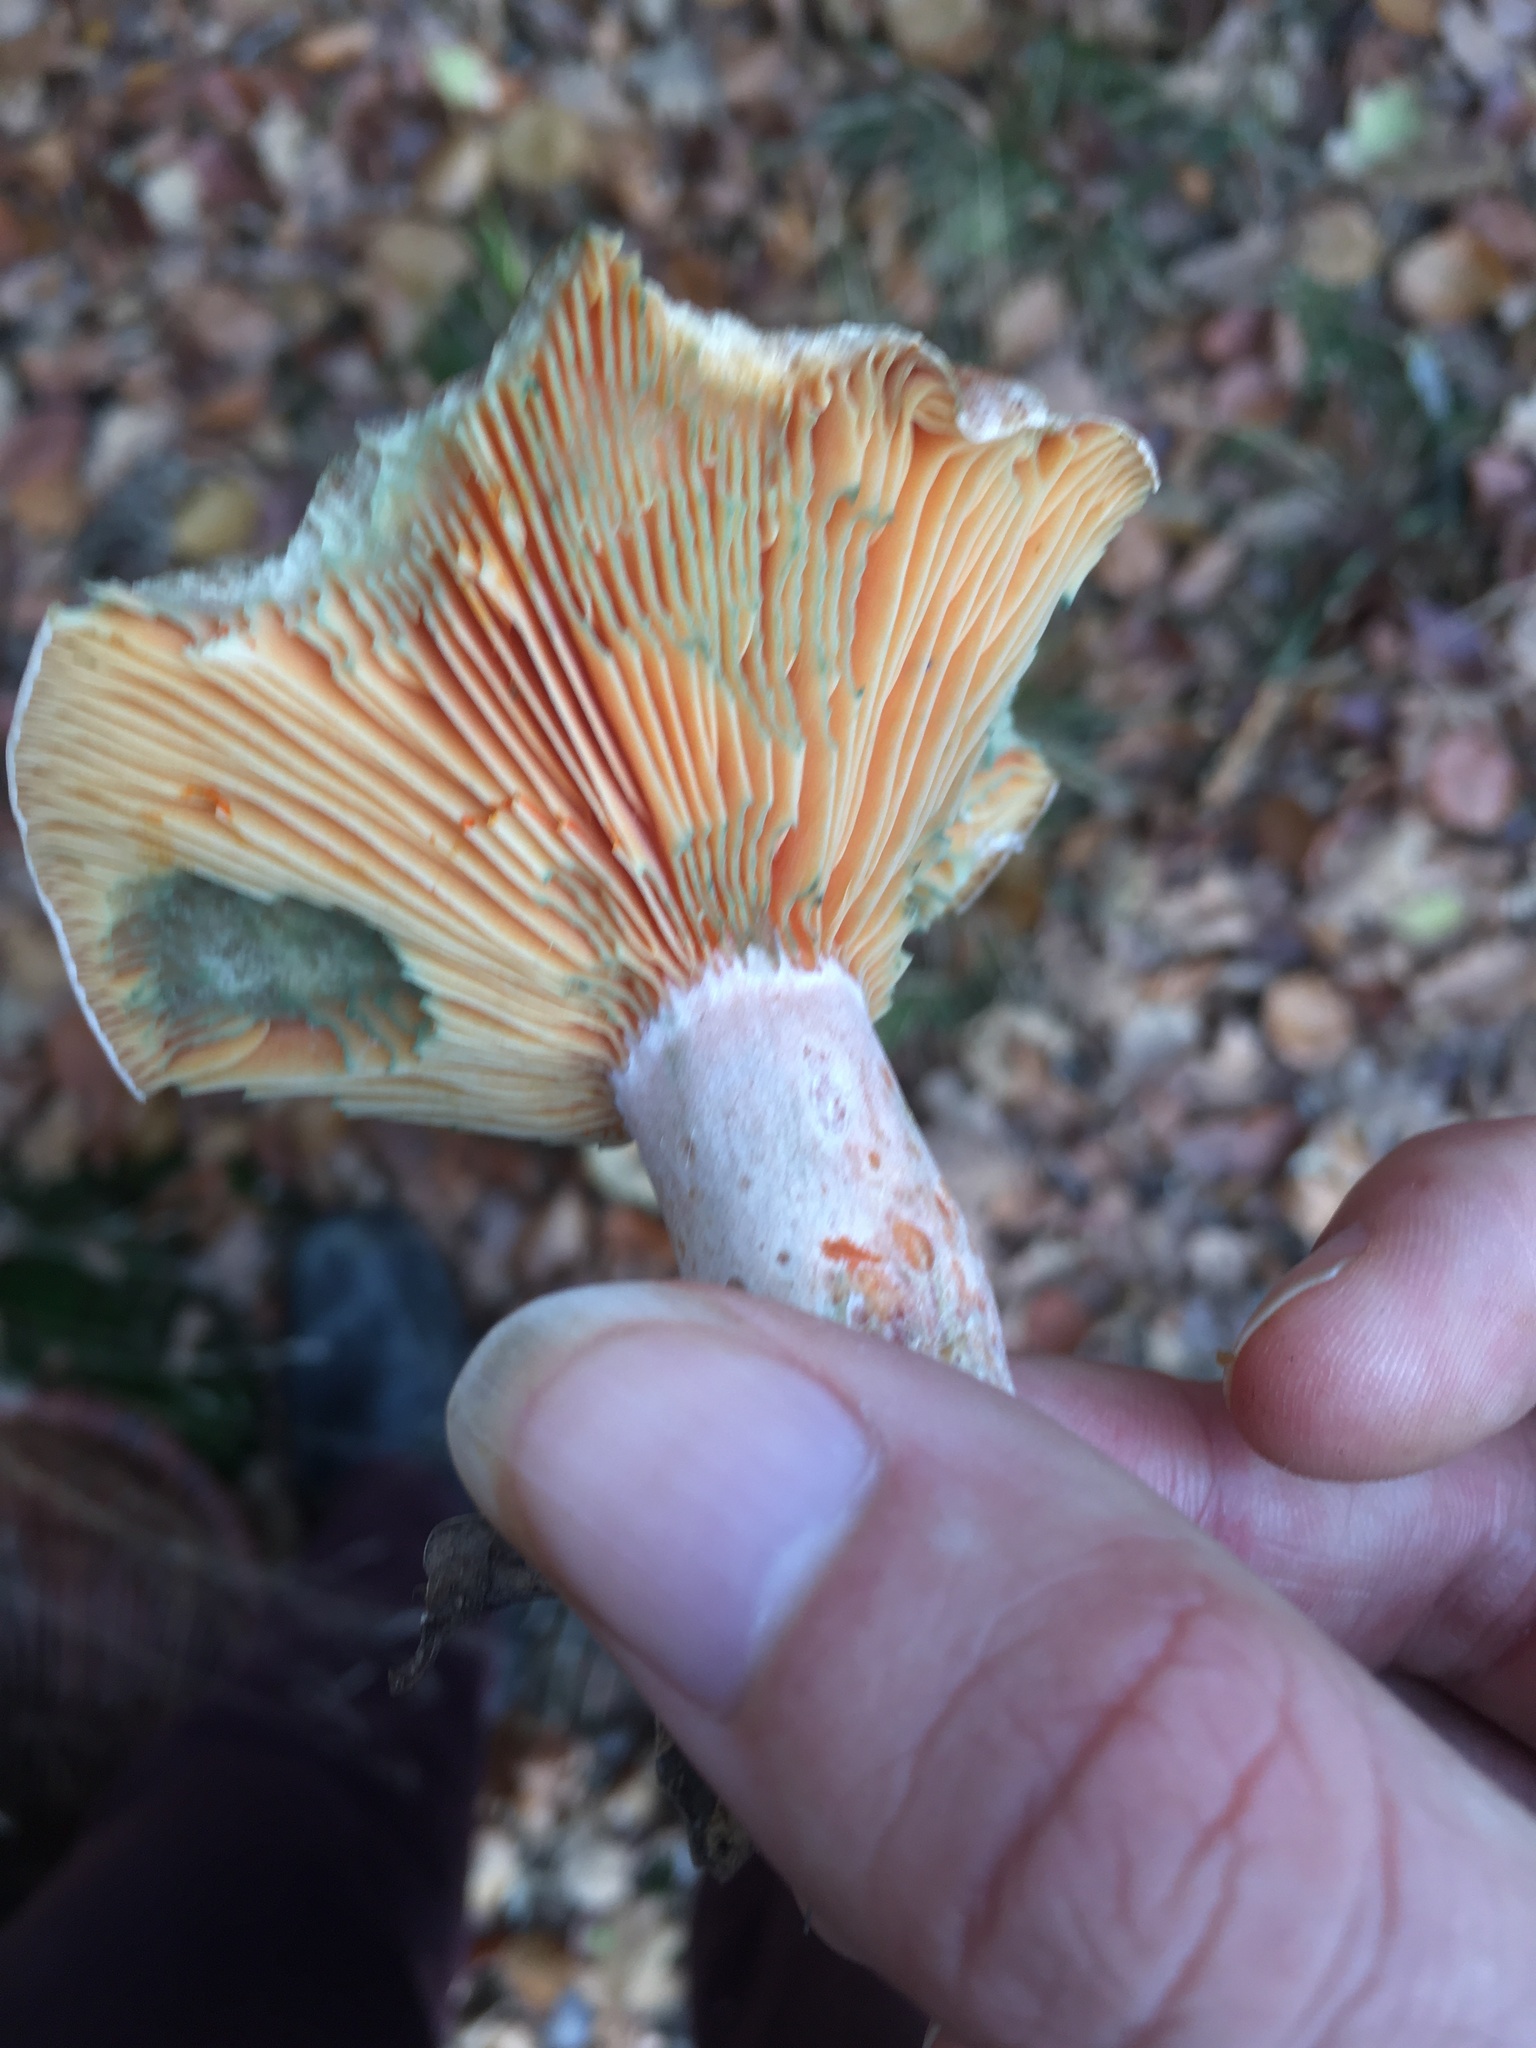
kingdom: Fungi
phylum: Basidiomycota
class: Agaricomycetes
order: Russulales
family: Russulaceae
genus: Lactarius
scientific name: Lactarius deliciosus
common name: Saffron milk-cap
